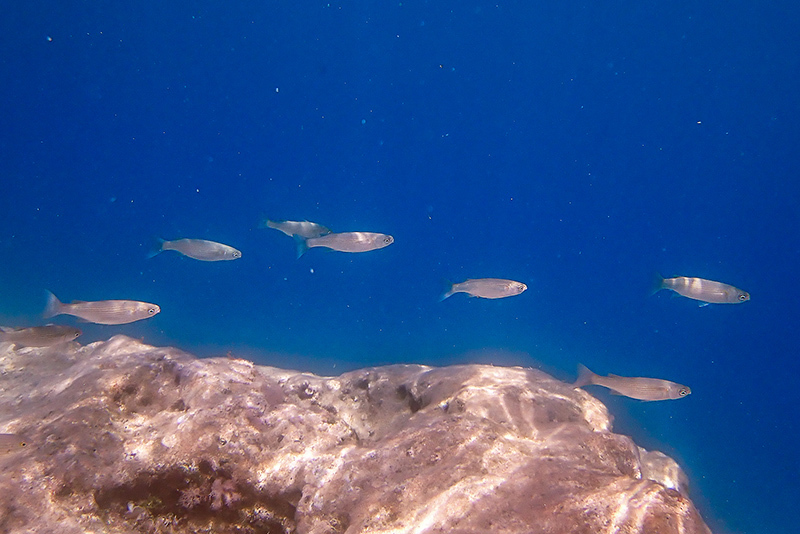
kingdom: Animalia
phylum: Chordata
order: Mugiliformes
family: Mugilidae
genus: Oedalechilus
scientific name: Oedalechilus labeo
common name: Boxlip mullet
